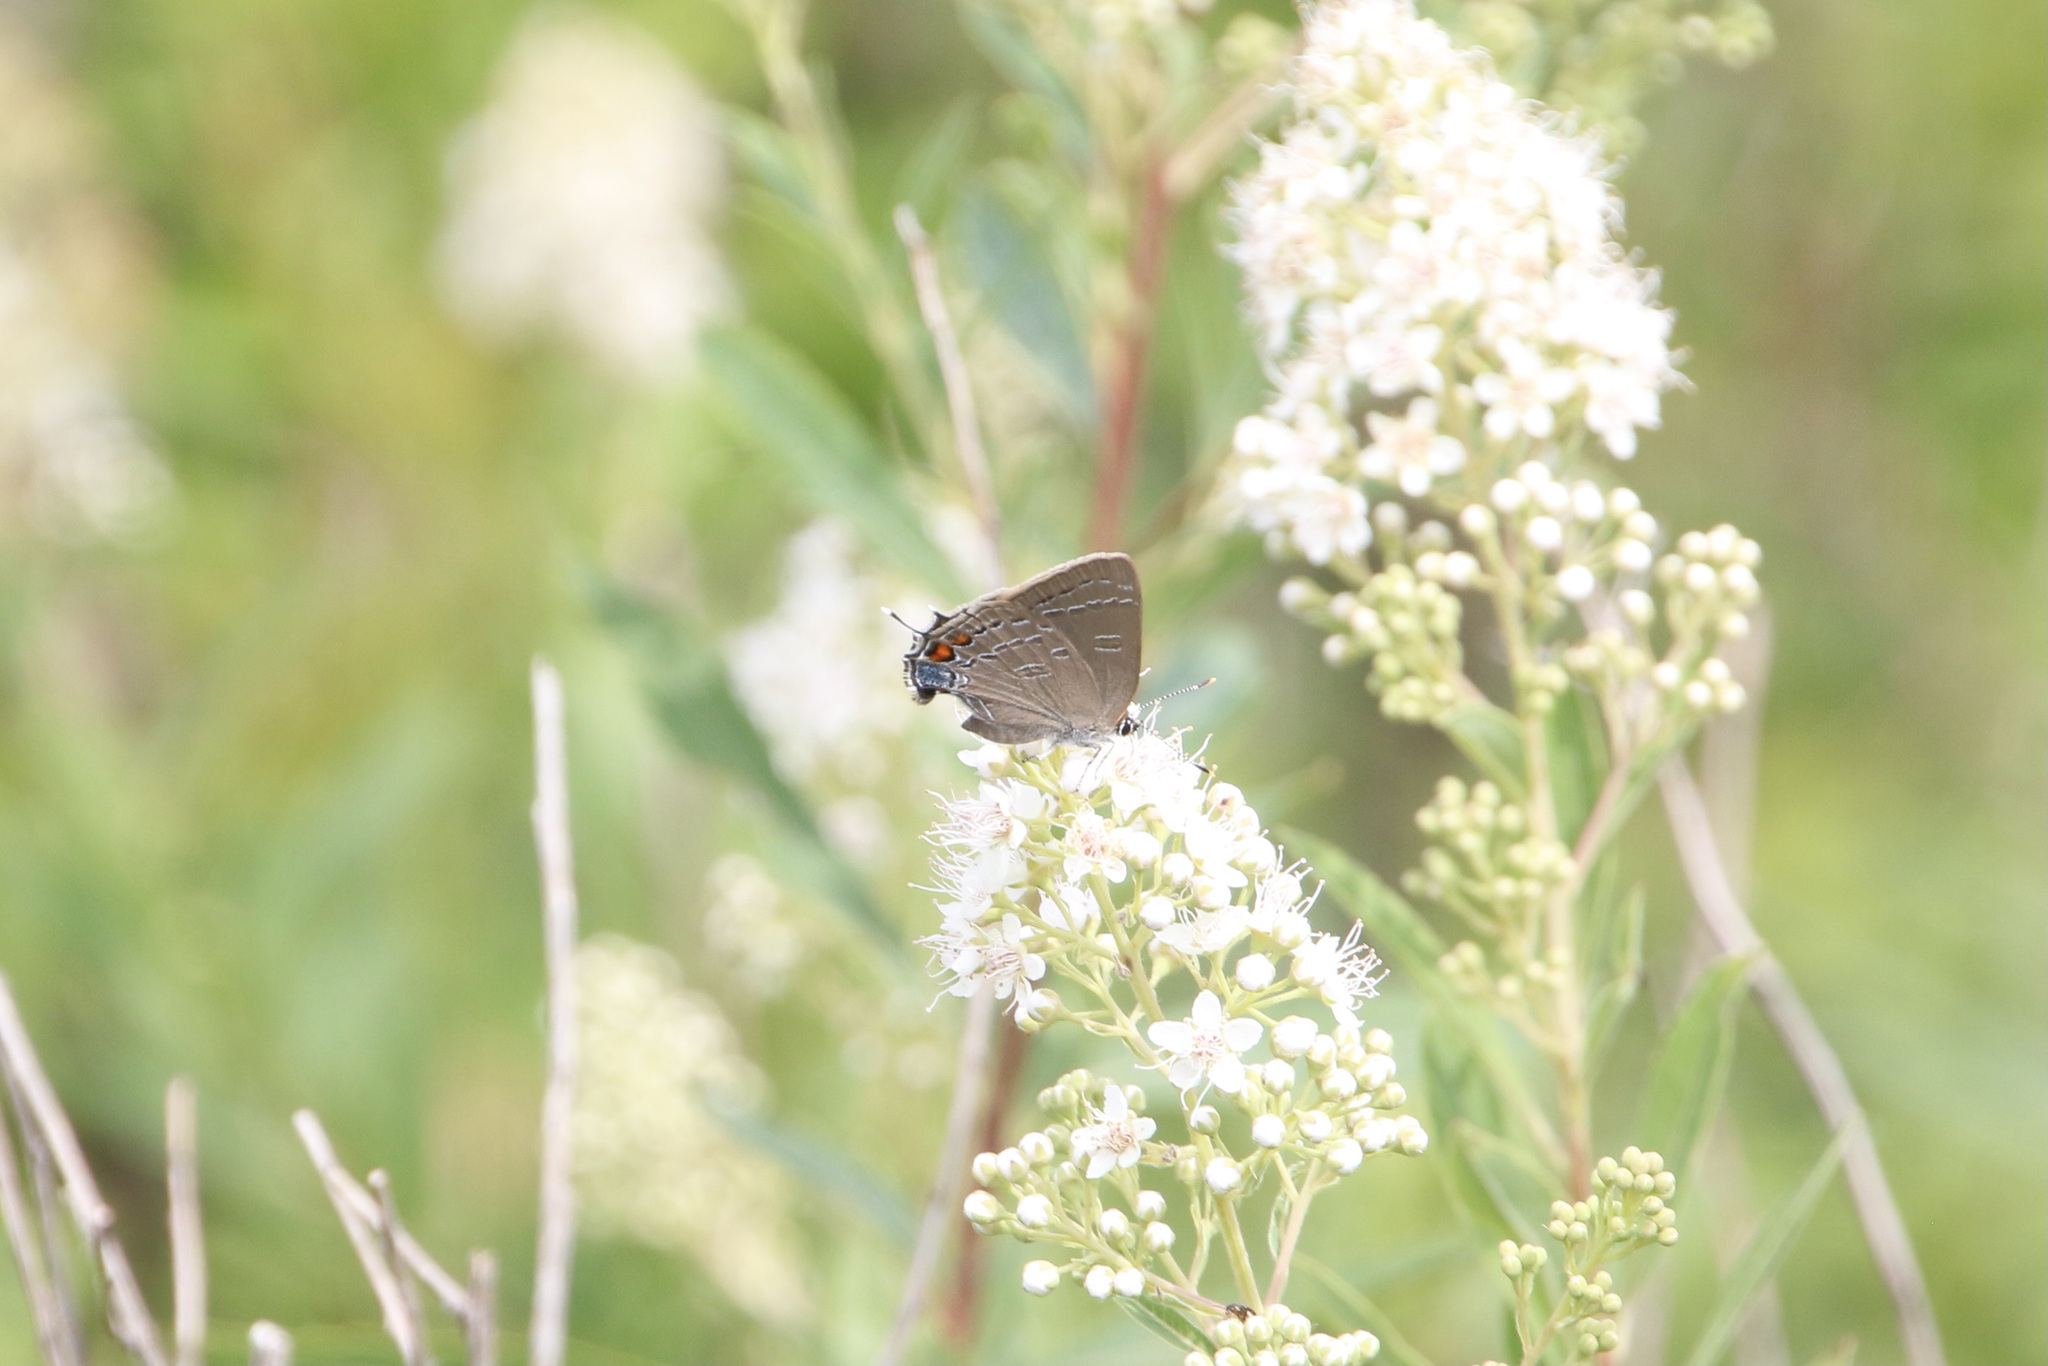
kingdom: Animalia
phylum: Arthropoda
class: Insecta
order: Lepidoptera
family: Lycaenidae
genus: Satyrium
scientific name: Satyrium calanus
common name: Banded hairstreak
